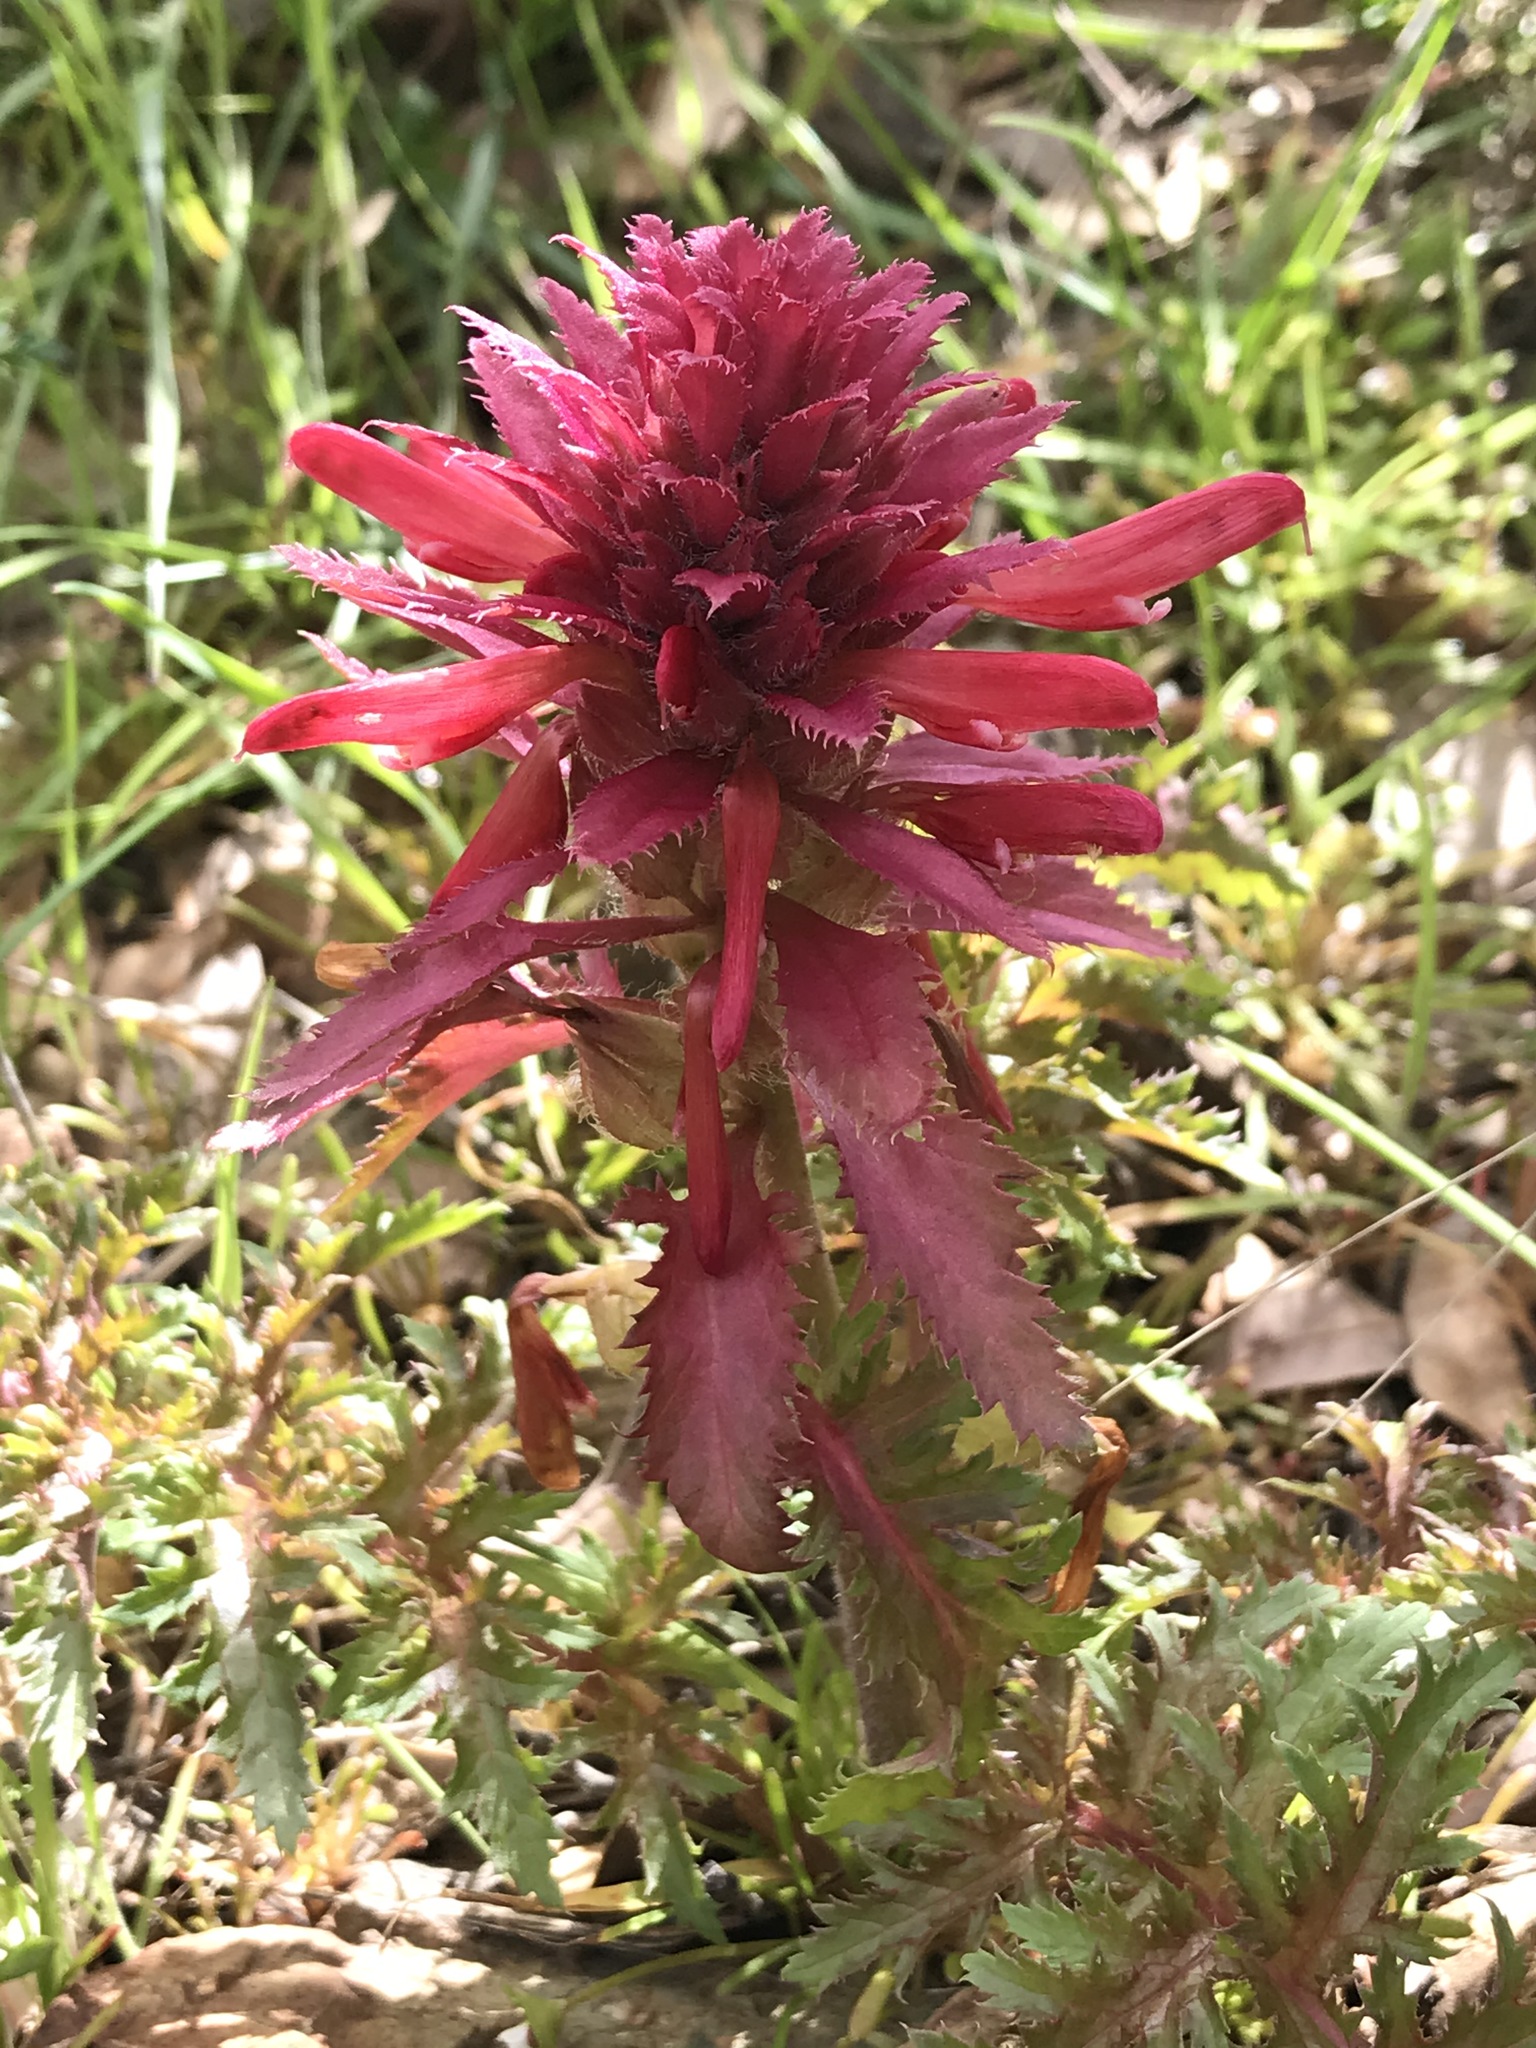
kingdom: Plantae
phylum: Tracheophyta
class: Magnoliopsida
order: Lamiales
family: Orobanchaceae
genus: Pedicularis
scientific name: Pedicularis densiflora
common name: Indian warrior
